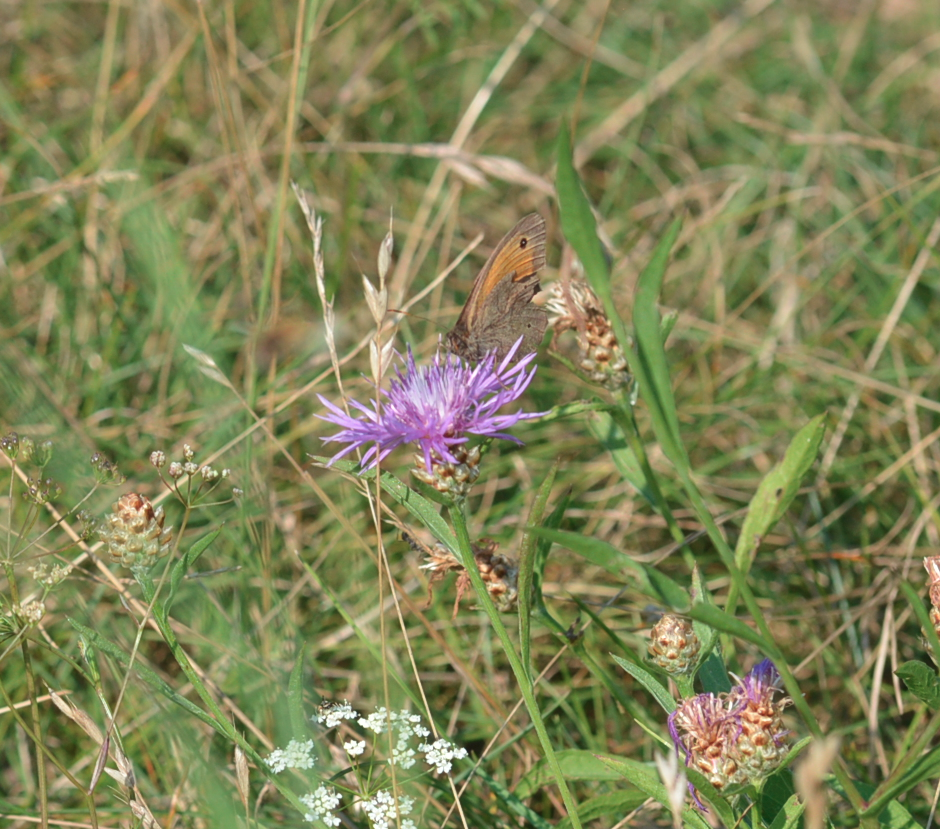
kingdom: Animalia
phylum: Arthropoda
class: Insecta
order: Lepidoptera
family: Nymphalidae
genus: Maniola
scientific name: Maniola jurtina
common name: Meadow brown
